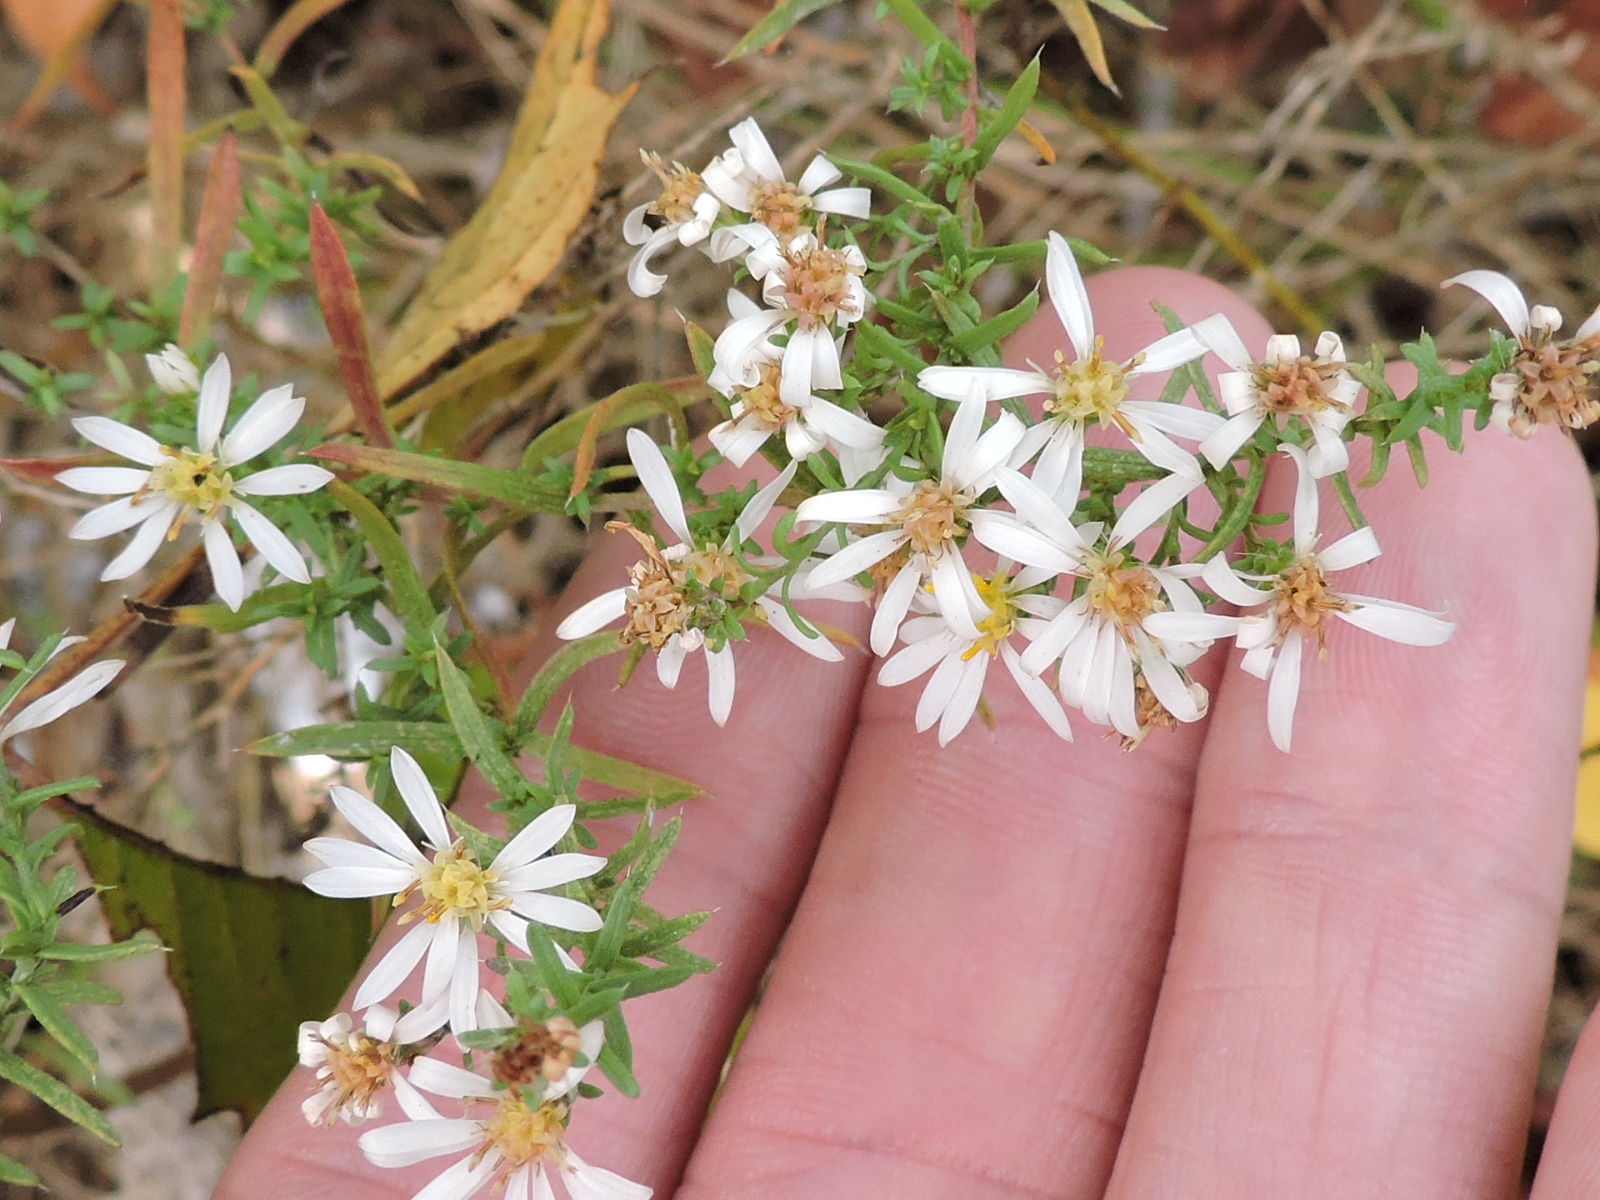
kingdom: Plantae
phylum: Tracheophyta
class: Magnoliopsida
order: Asterales
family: Asteraceae
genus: Symphyotrichum
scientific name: Symphyotrichum ericoides
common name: Heath aster
